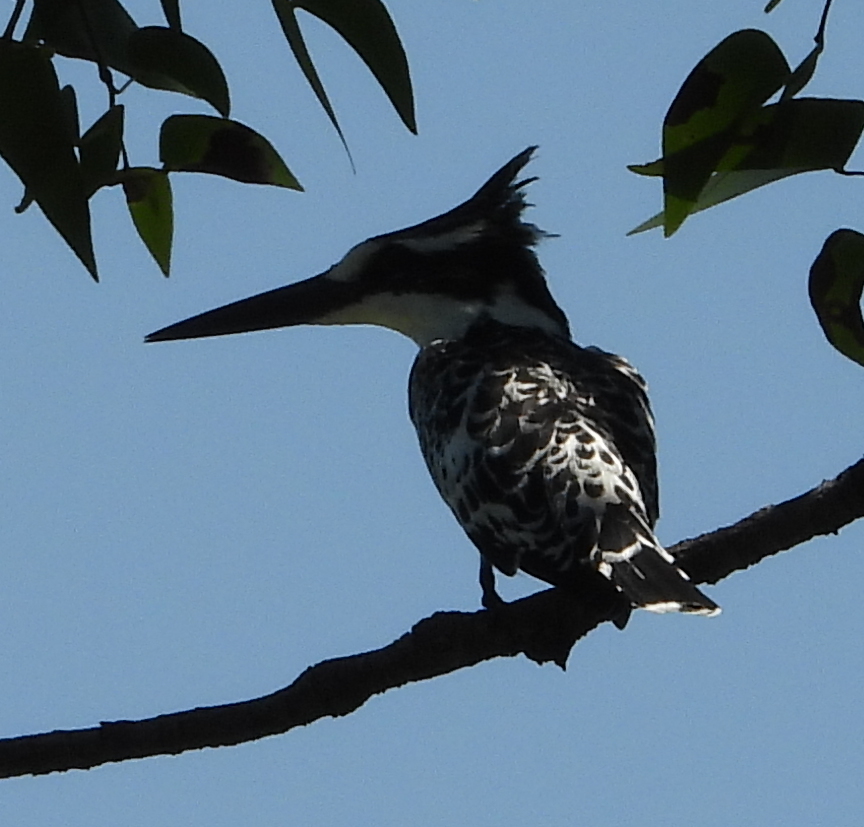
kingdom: Animalia
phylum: Chordata
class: Aves
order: Coraciiformes
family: Alcedinidae
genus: Ceryle
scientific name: Ceryle rudis
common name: Pied kingfisher
